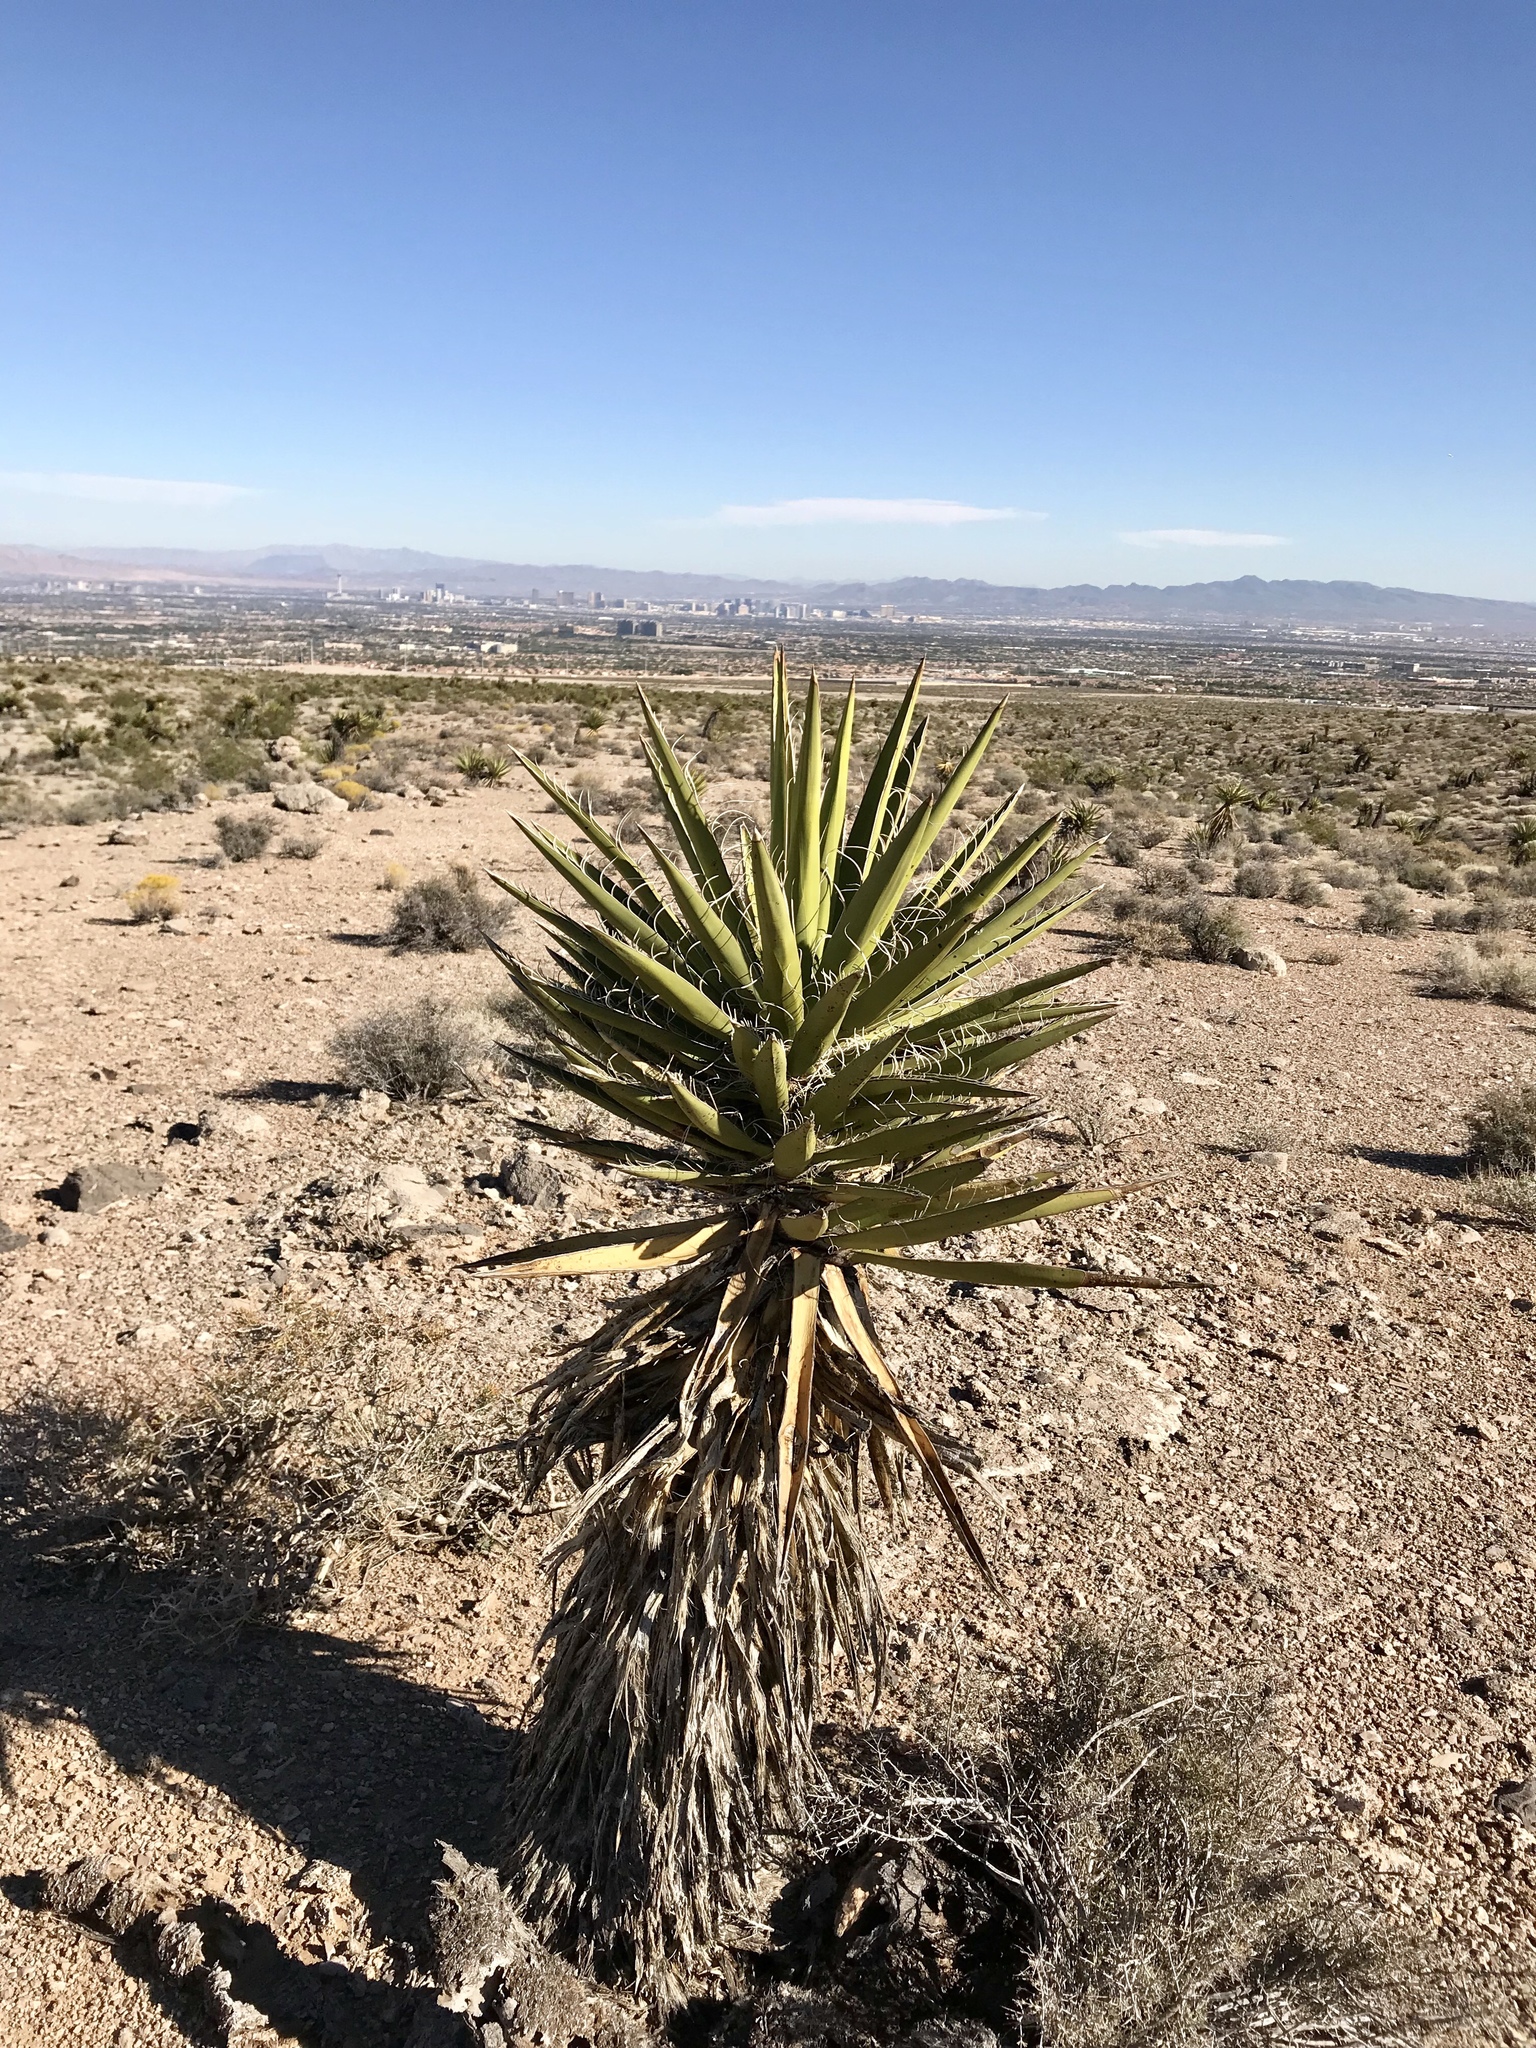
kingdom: Plantae
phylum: Tracheophyta
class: Liliopsida
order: Asparagales
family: Asparagaceae
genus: Yucca
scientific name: Yucca schidigera
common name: Mojave yucca
